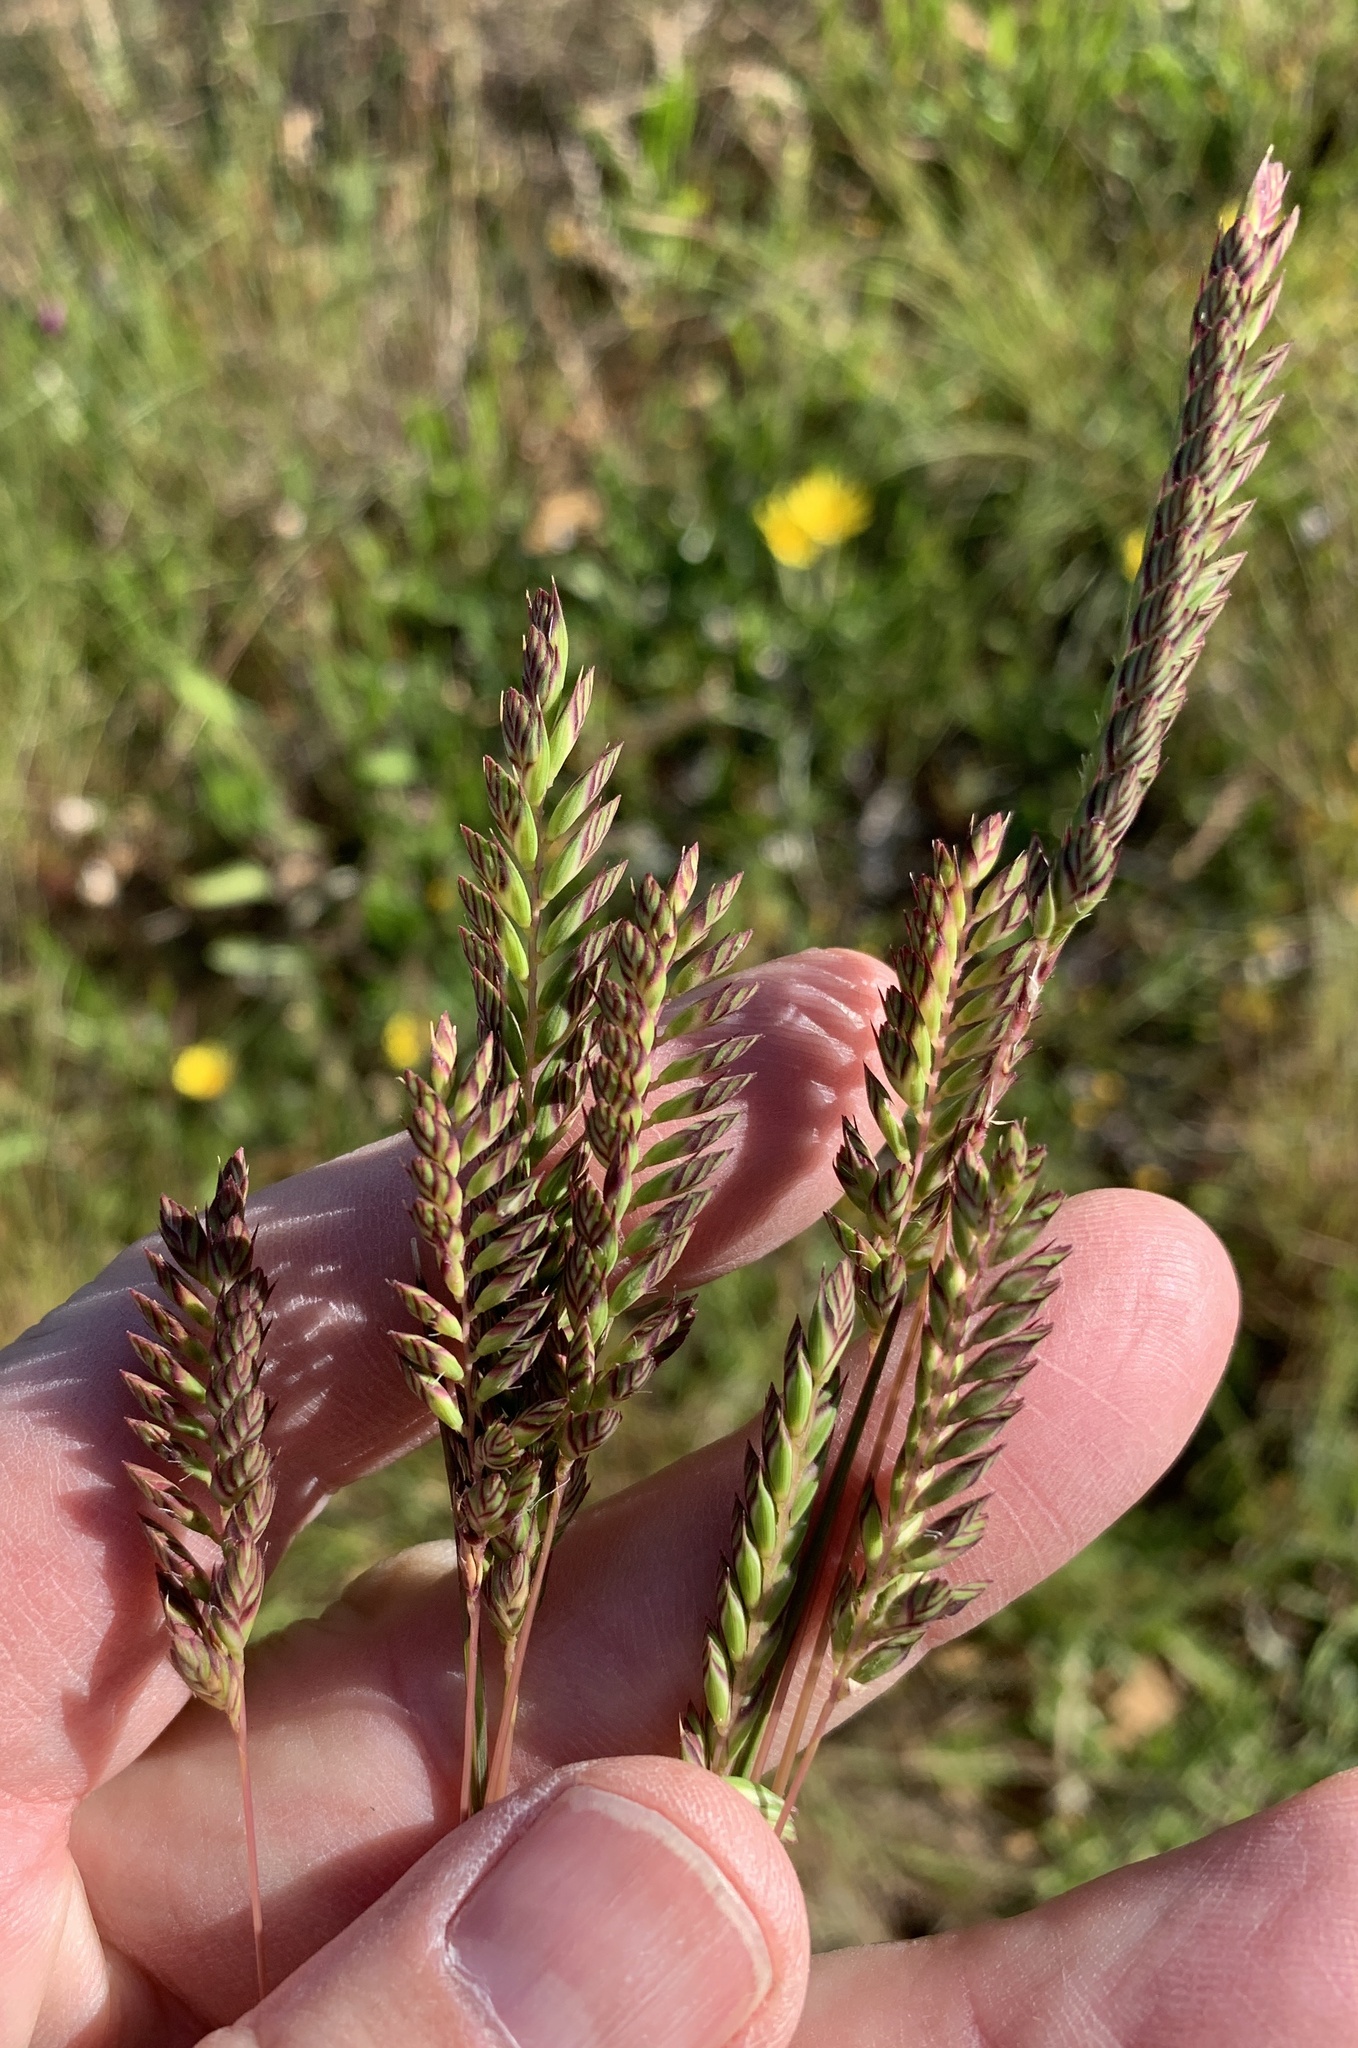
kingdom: Plantae
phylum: Tracheophyta
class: Liliopsida
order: Poales
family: Poaceae
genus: Tribolium
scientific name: Tribolium uniolae
